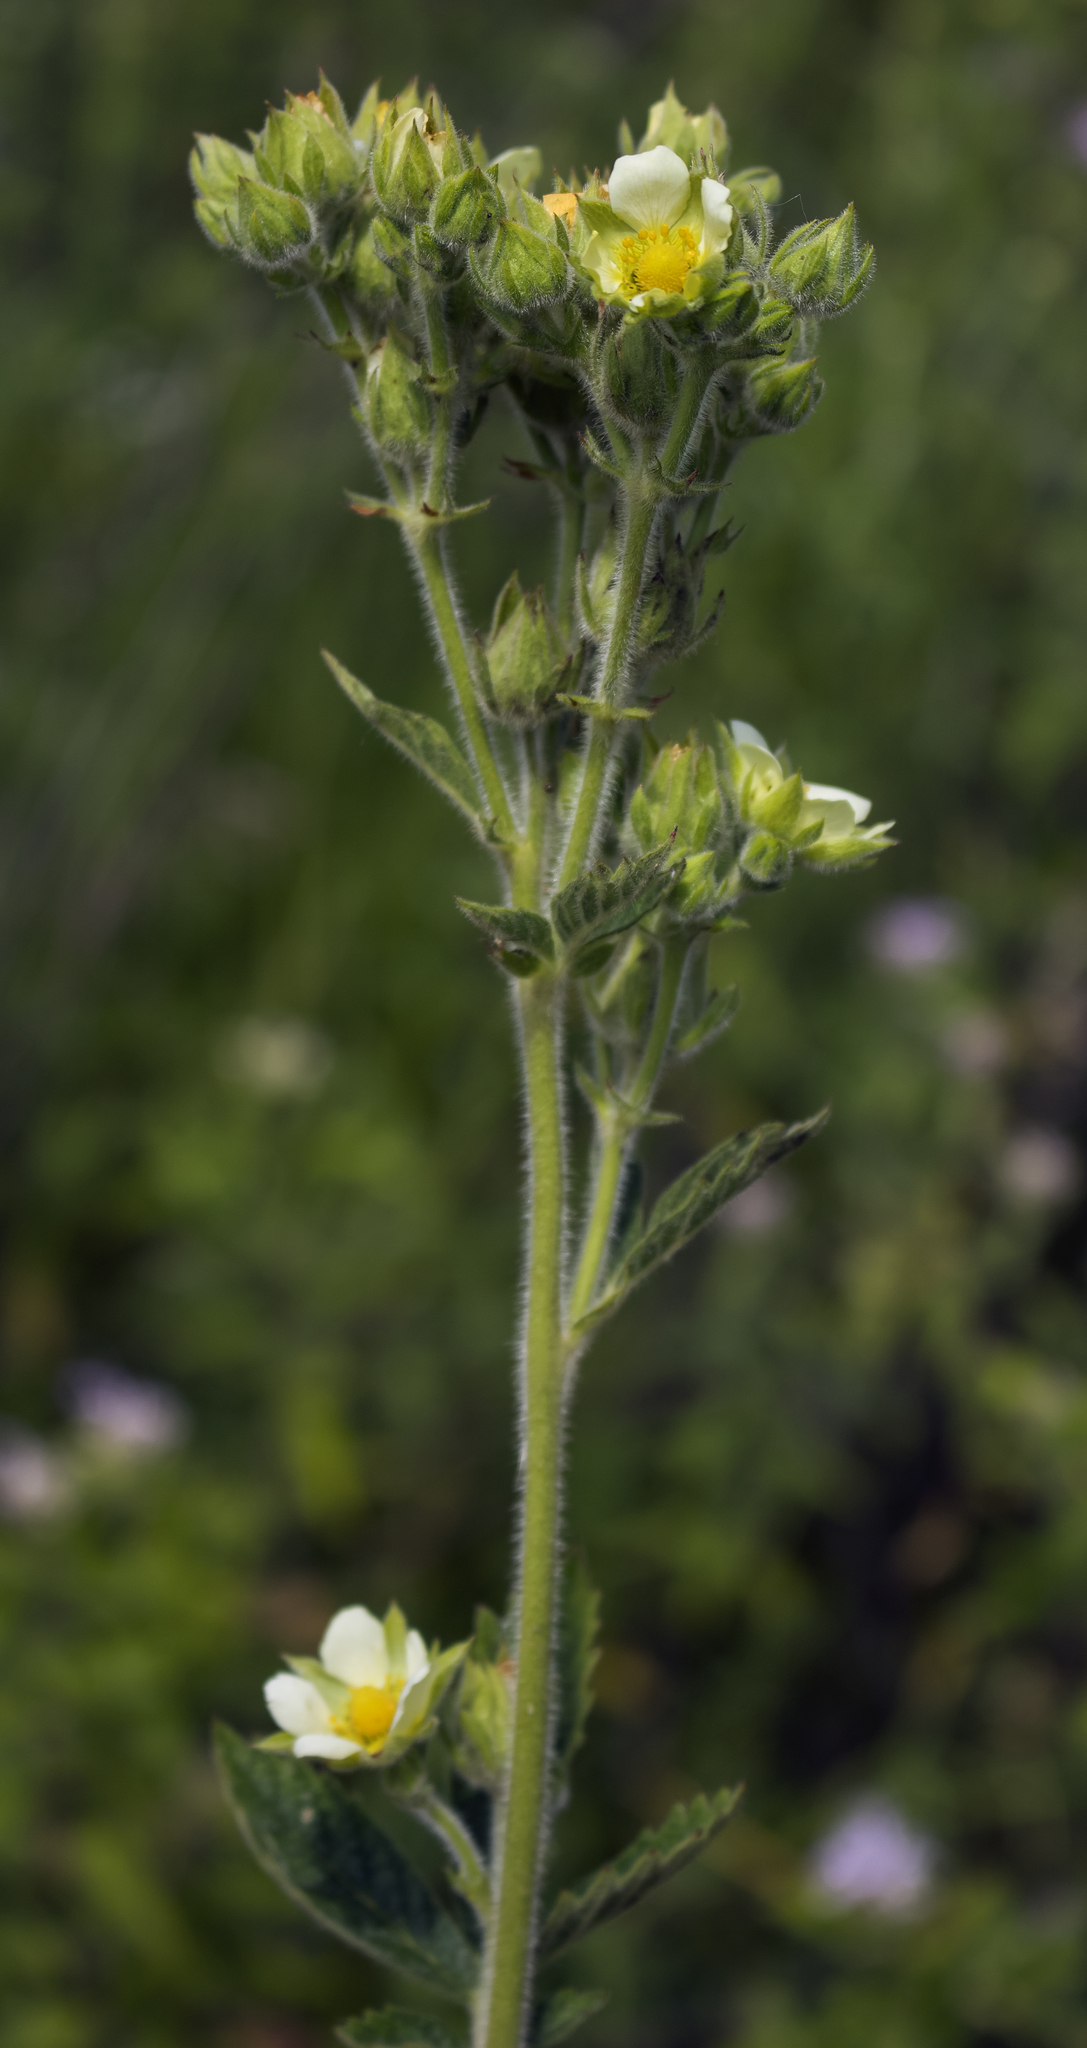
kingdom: Plantae
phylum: Tracheophyta
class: Magnoliopsida
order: Rosales
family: Rosaceae
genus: Drymocallis
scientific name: Drymocallis arguta
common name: Tall cinquefoil
